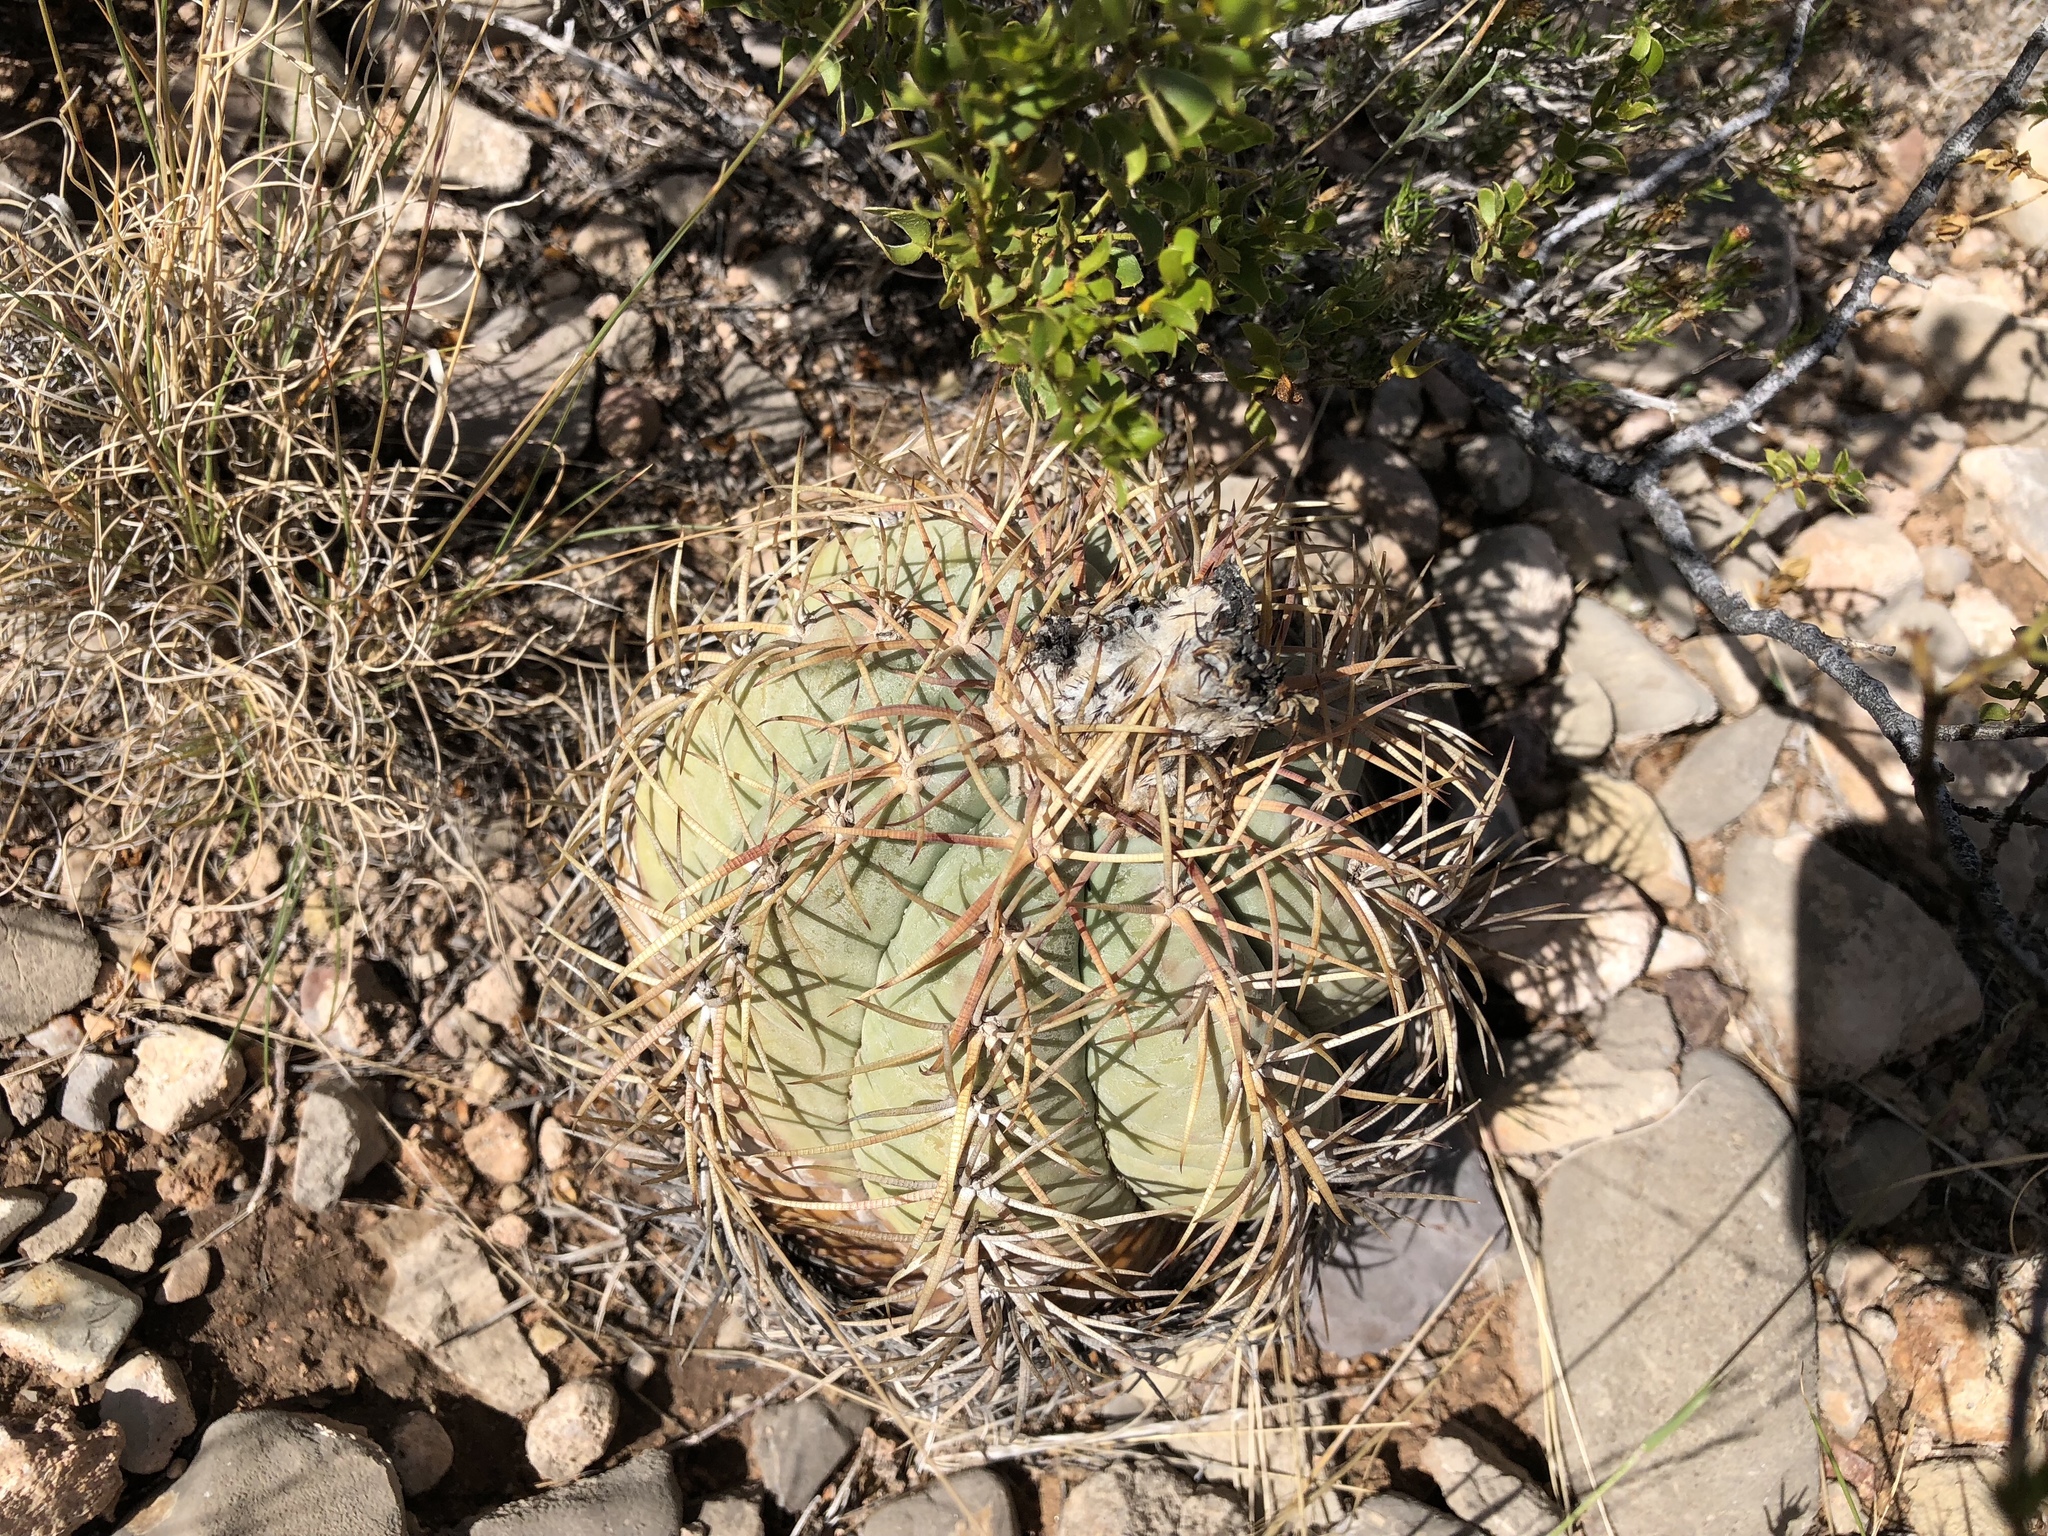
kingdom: Plantae
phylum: Tracheophyta
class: Magnoliopsida
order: Caryophyllales
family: Cactaceae
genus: Echinocactus
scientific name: Echinocactus horizonthalonius
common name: Devilshead
